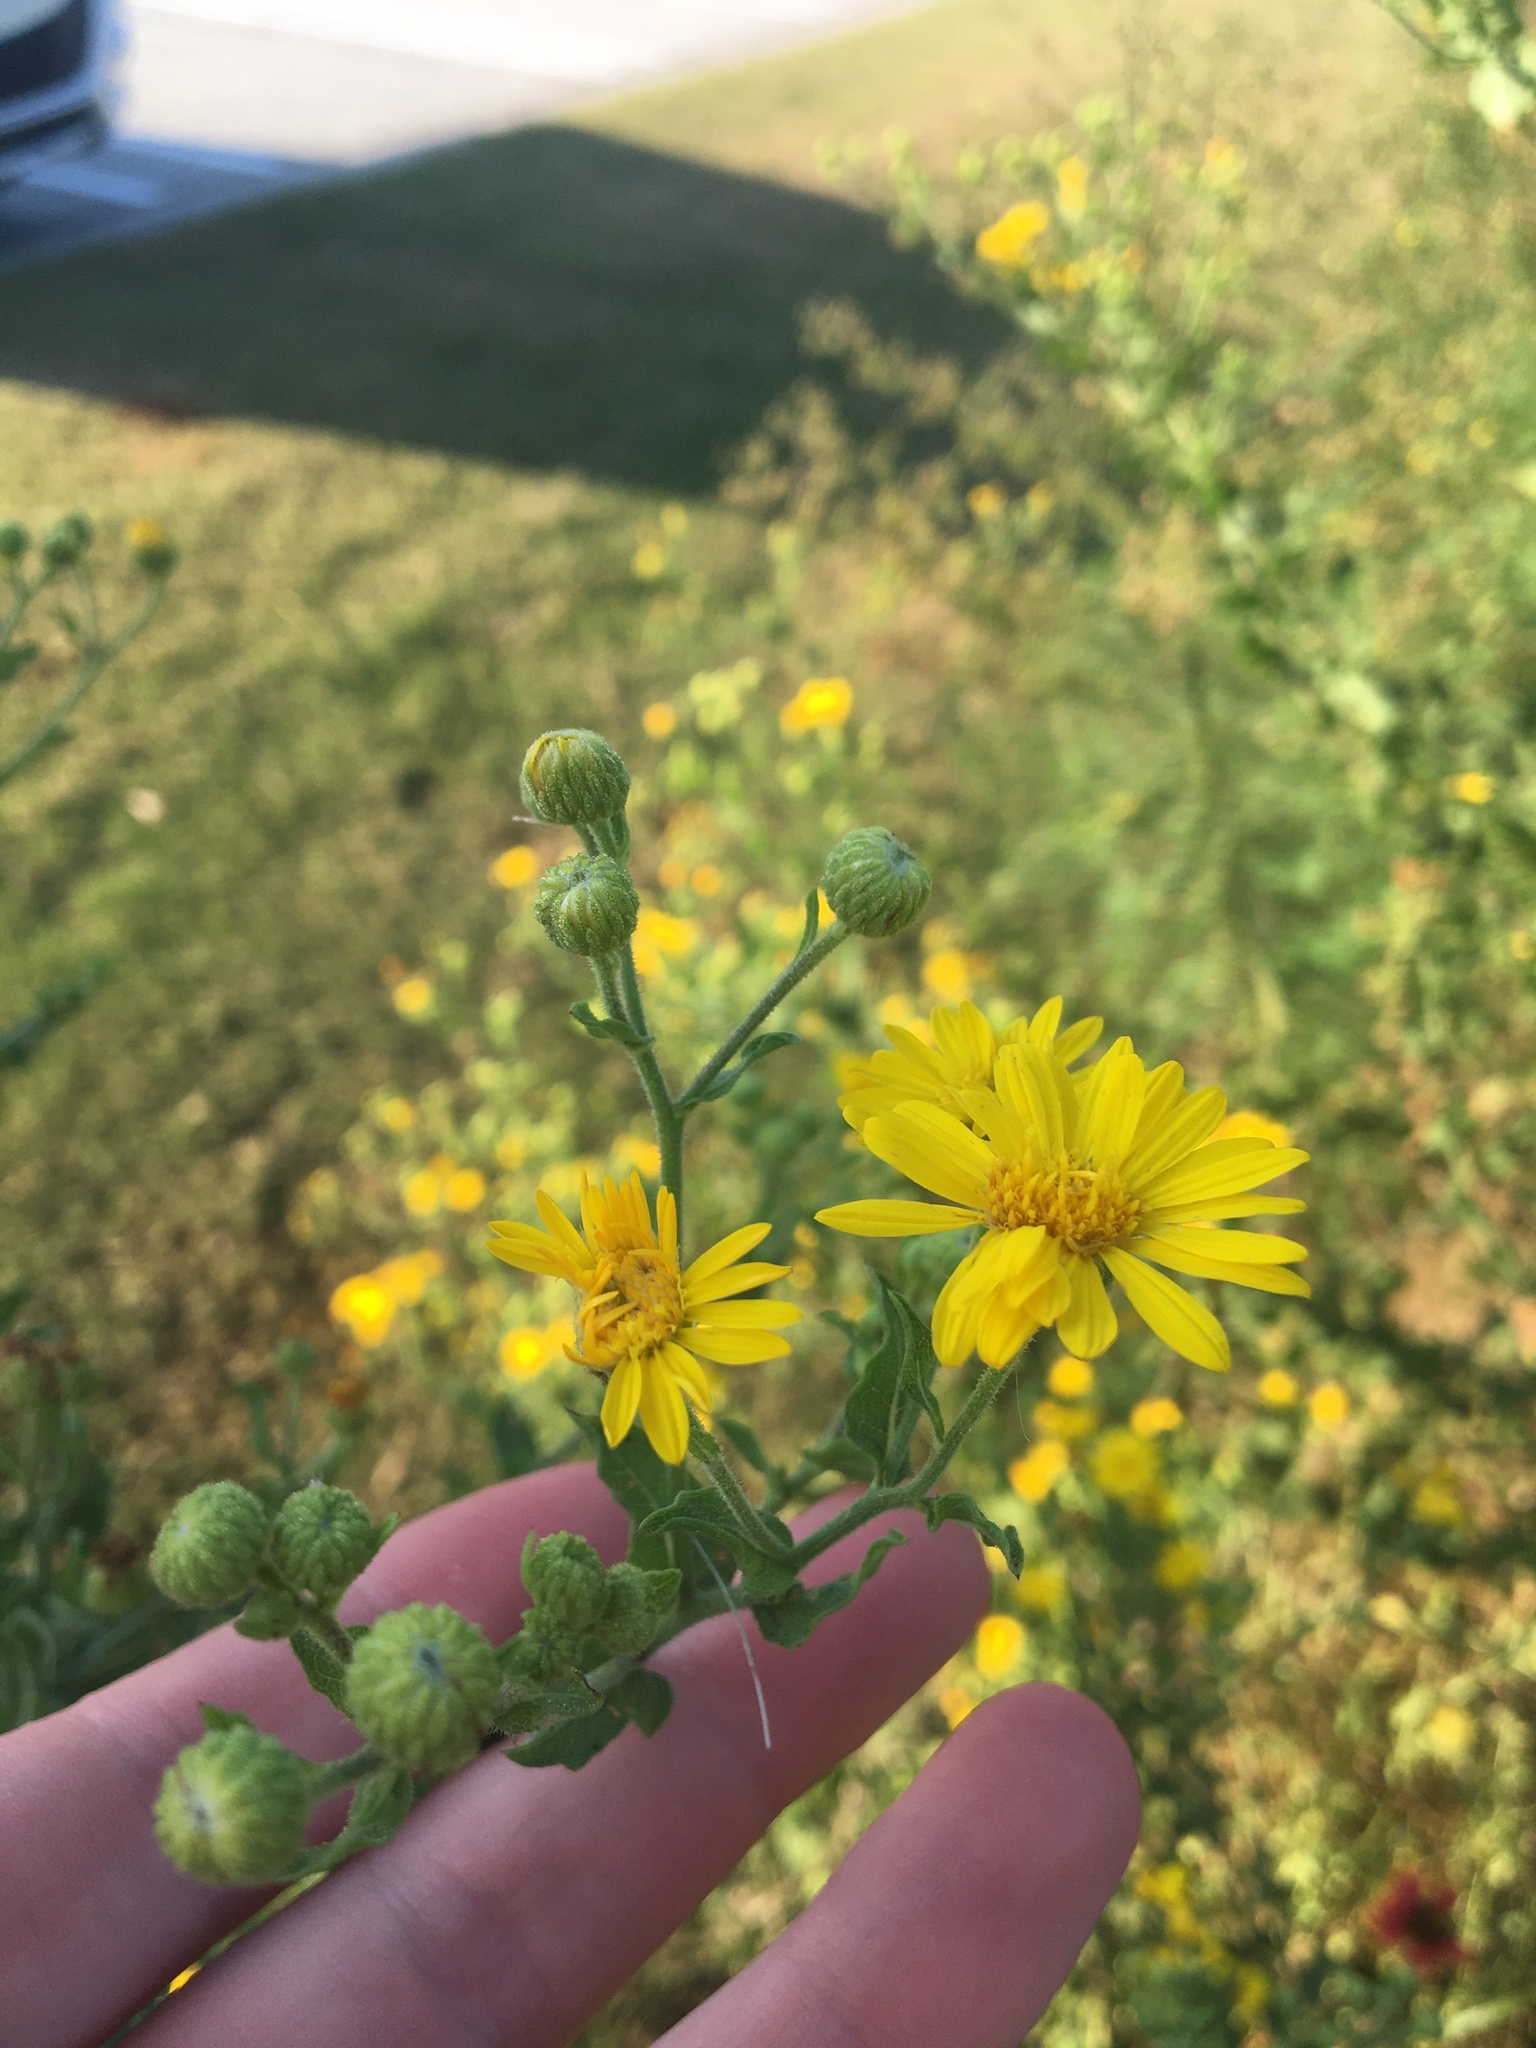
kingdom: Plantae
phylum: Tracheophyta
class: Magnoliopsida
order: Asterales
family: Asteraceae
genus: Heterotheca
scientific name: Heterotheca subaxillaris
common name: Camphorweed
